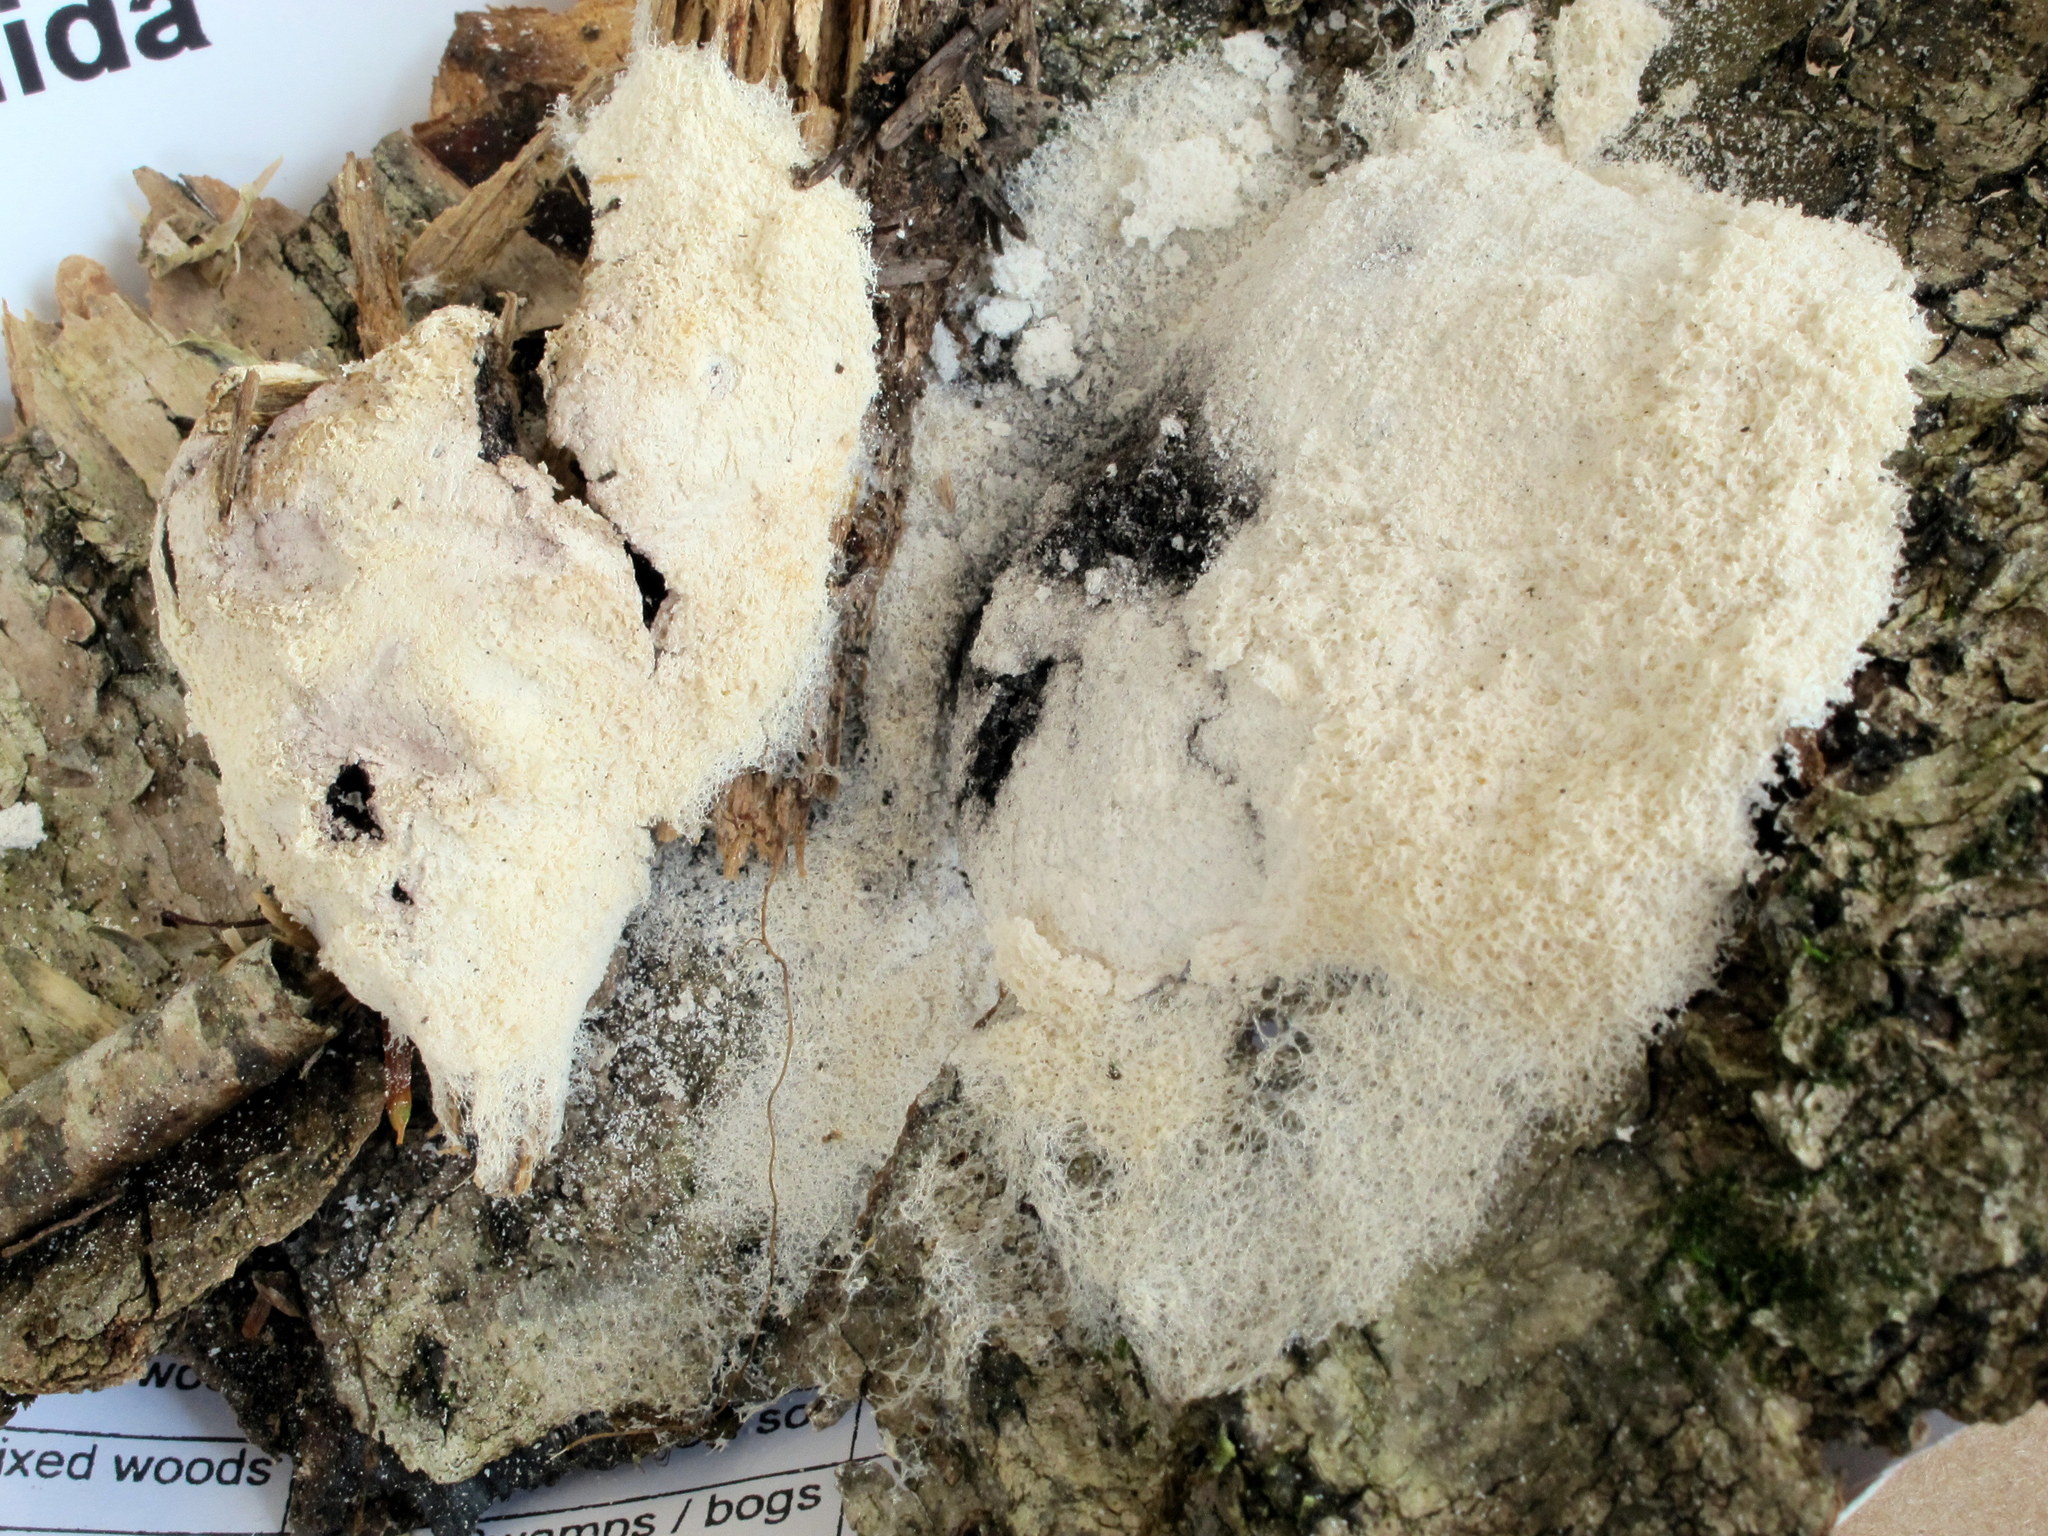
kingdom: Protozoa
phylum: Mycetozoa
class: Myxomycetes
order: Physarales
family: Physaraceae
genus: Fuligo
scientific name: Fuligo septica
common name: Dog vomit slime mold
